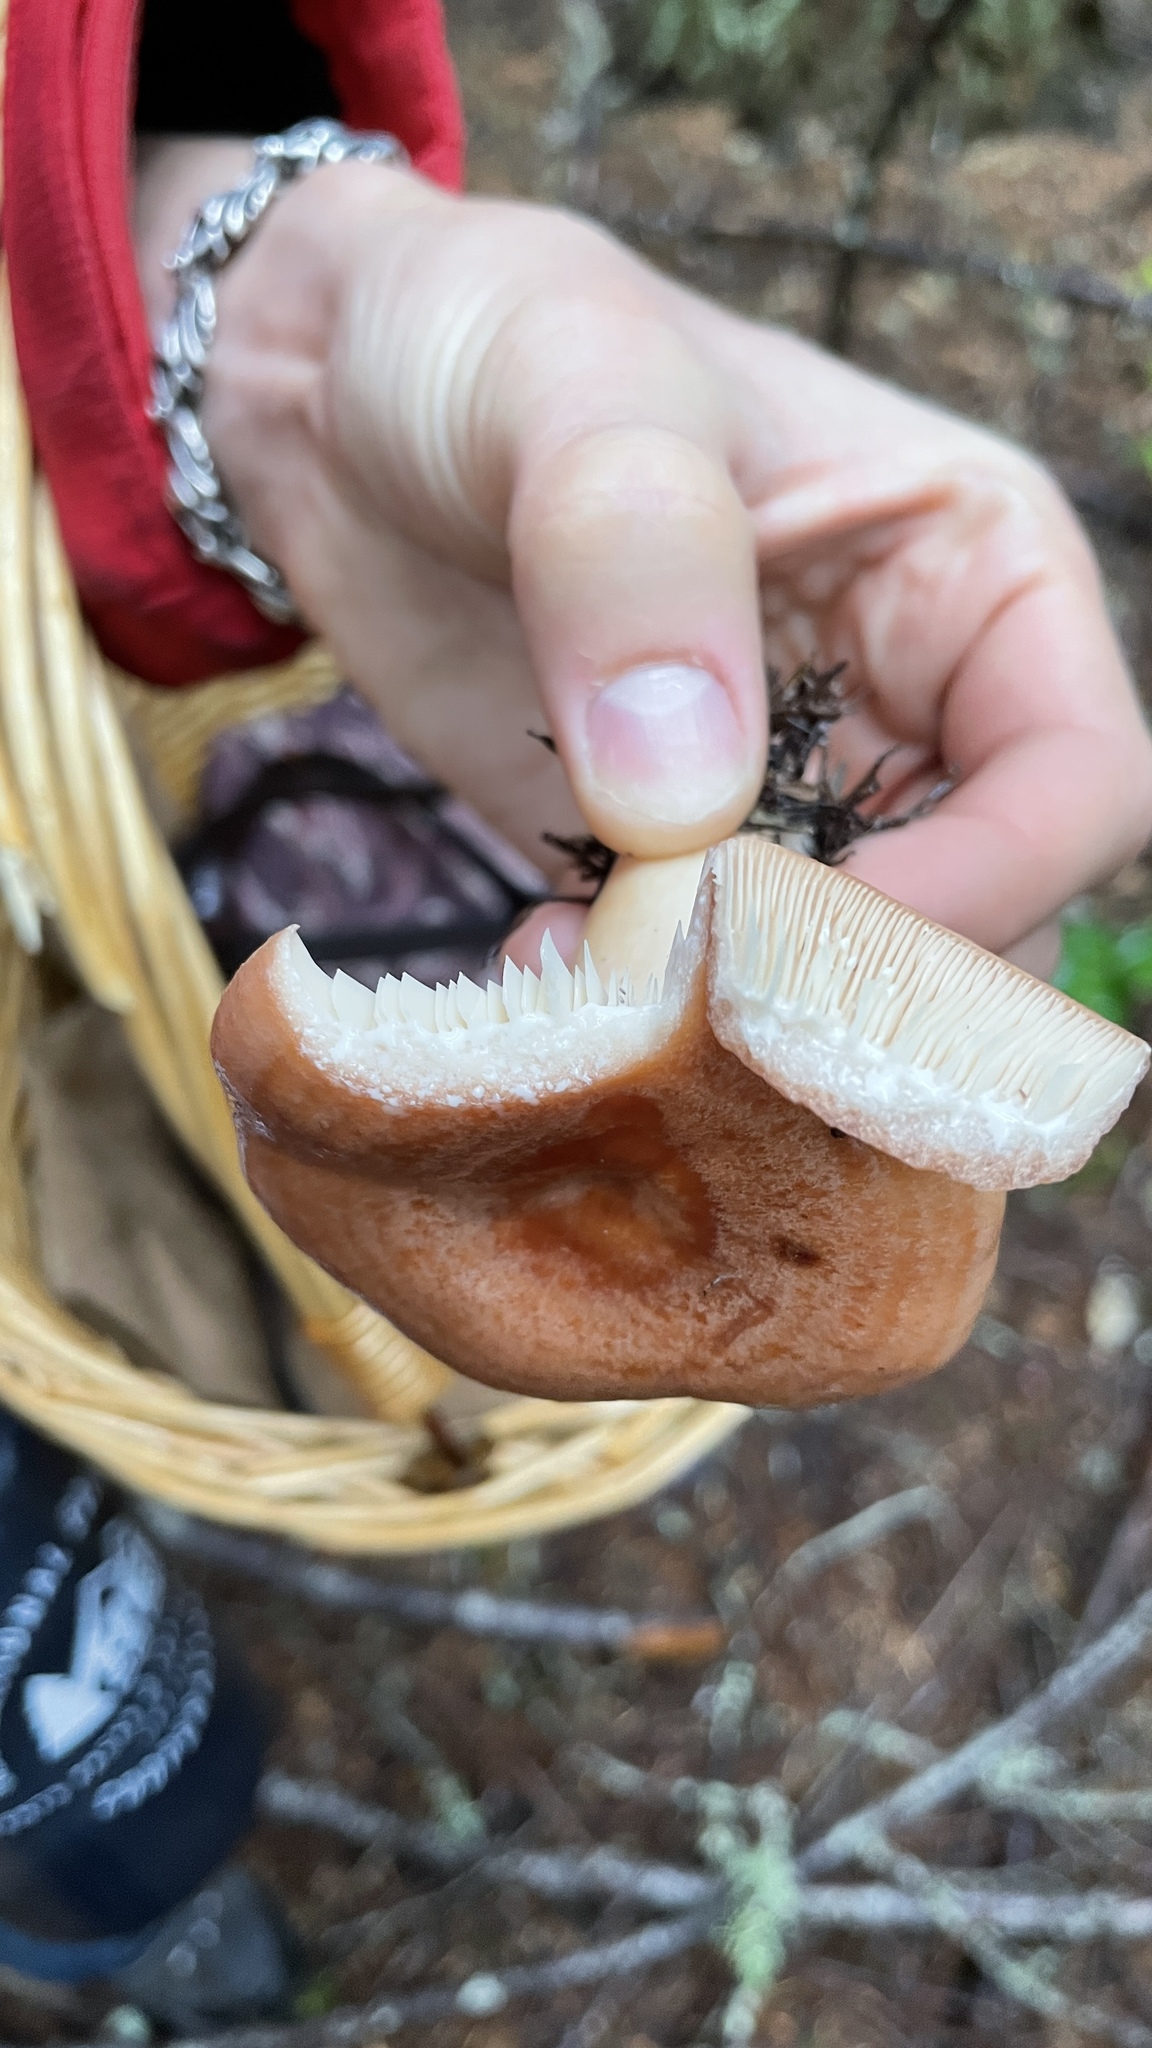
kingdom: Fungi
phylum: Basidiomycota
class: Agaricomycetes
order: Russulales
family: Russulaceae
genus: Lactarius
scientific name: Lactarius xanthogalactus
